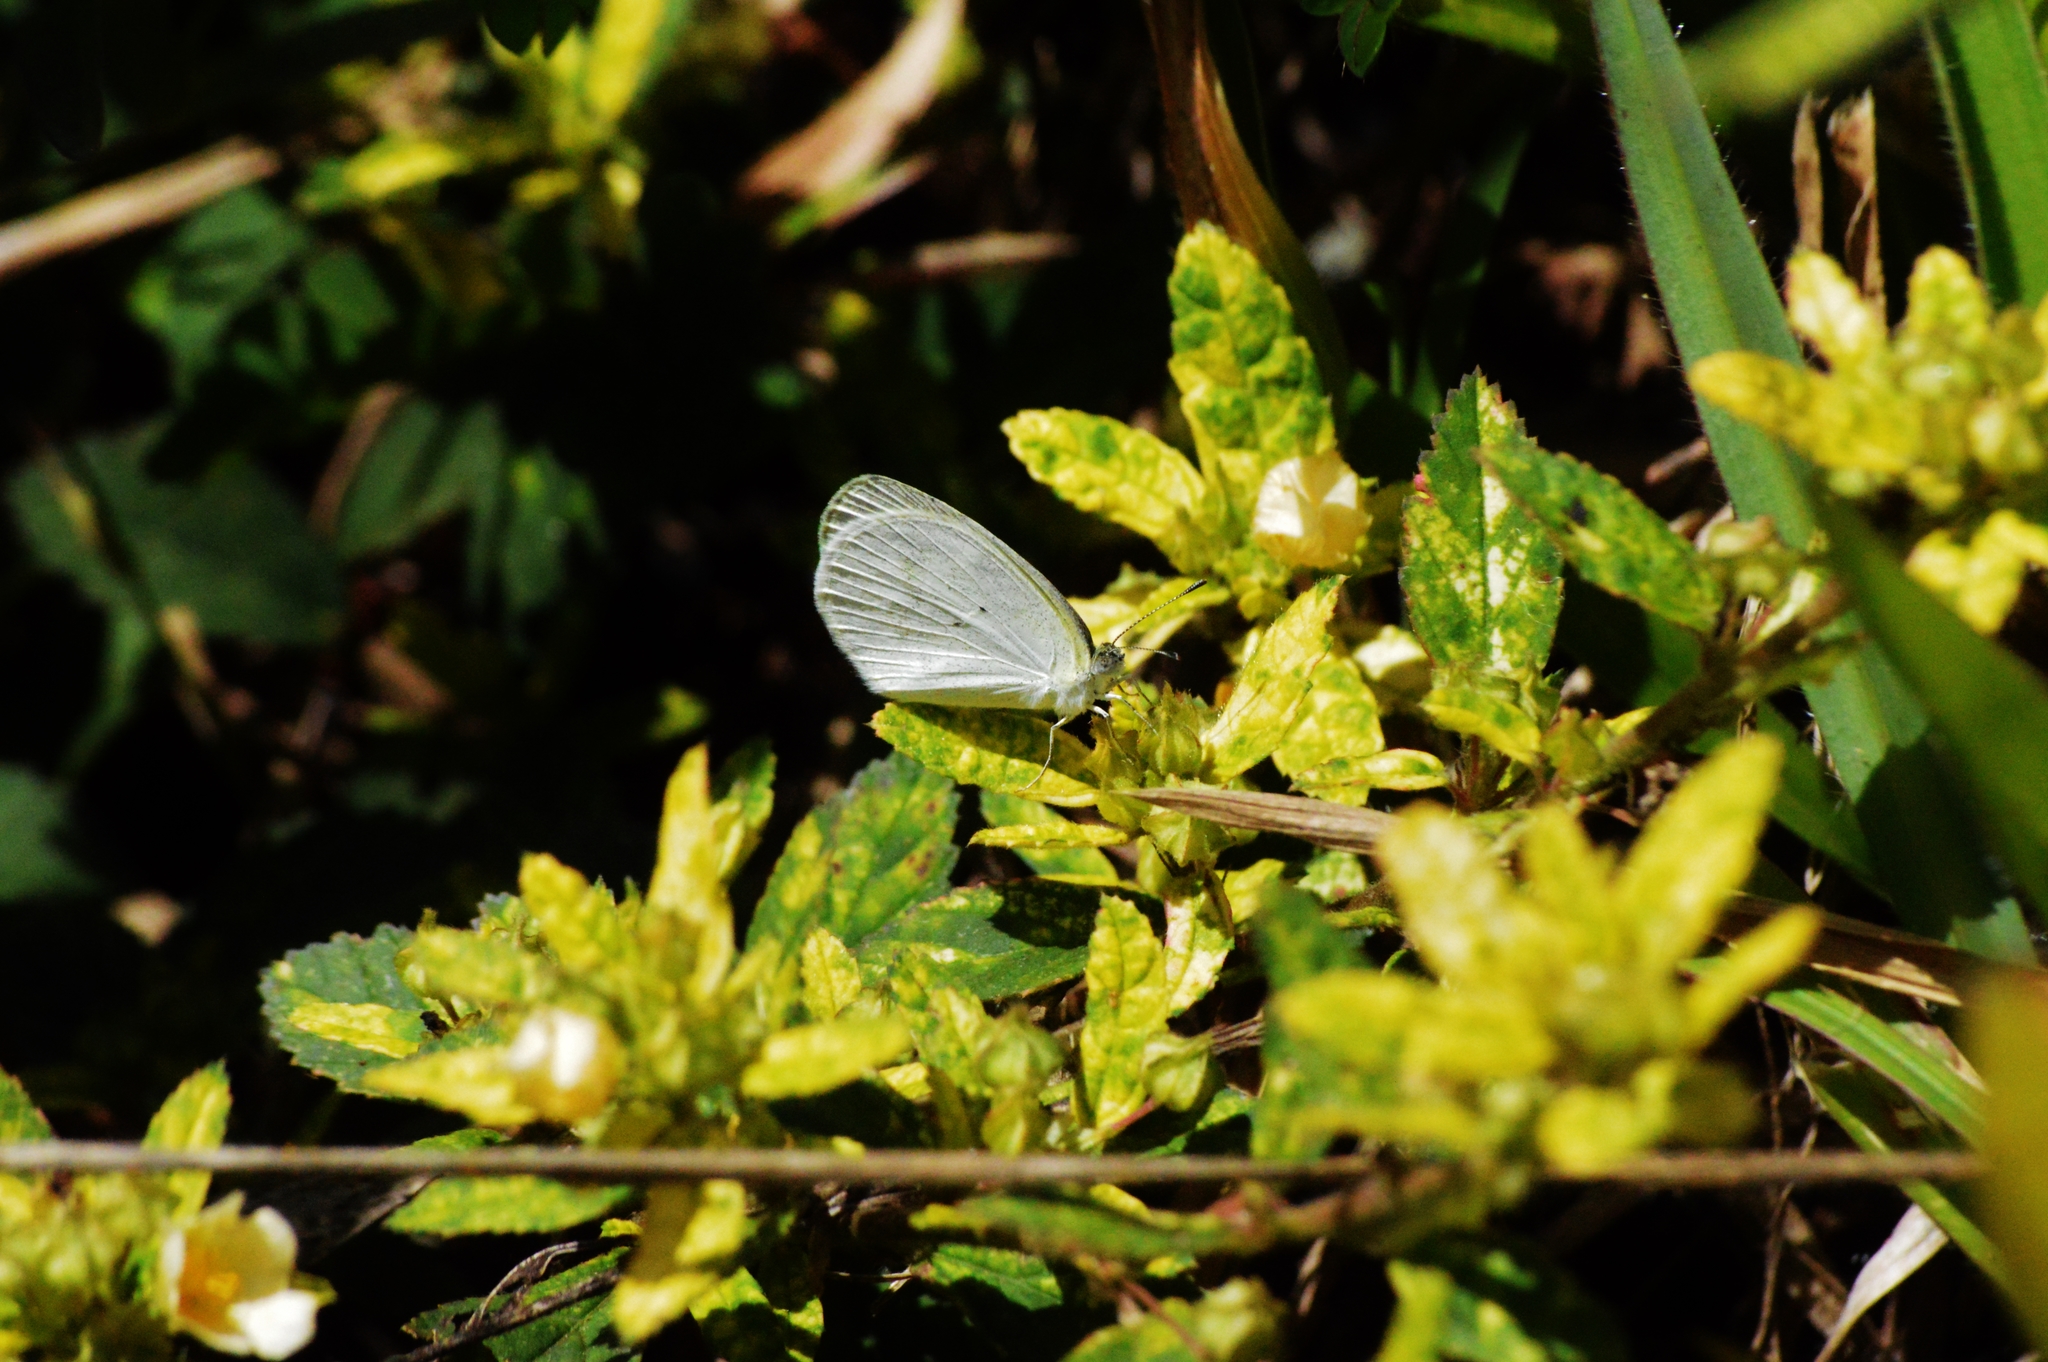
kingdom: Animalia
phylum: Arthropoda
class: Insecta
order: Lepidoptera
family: Pieridae
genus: Eurema
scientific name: Eurema elathea
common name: Banded yellow
